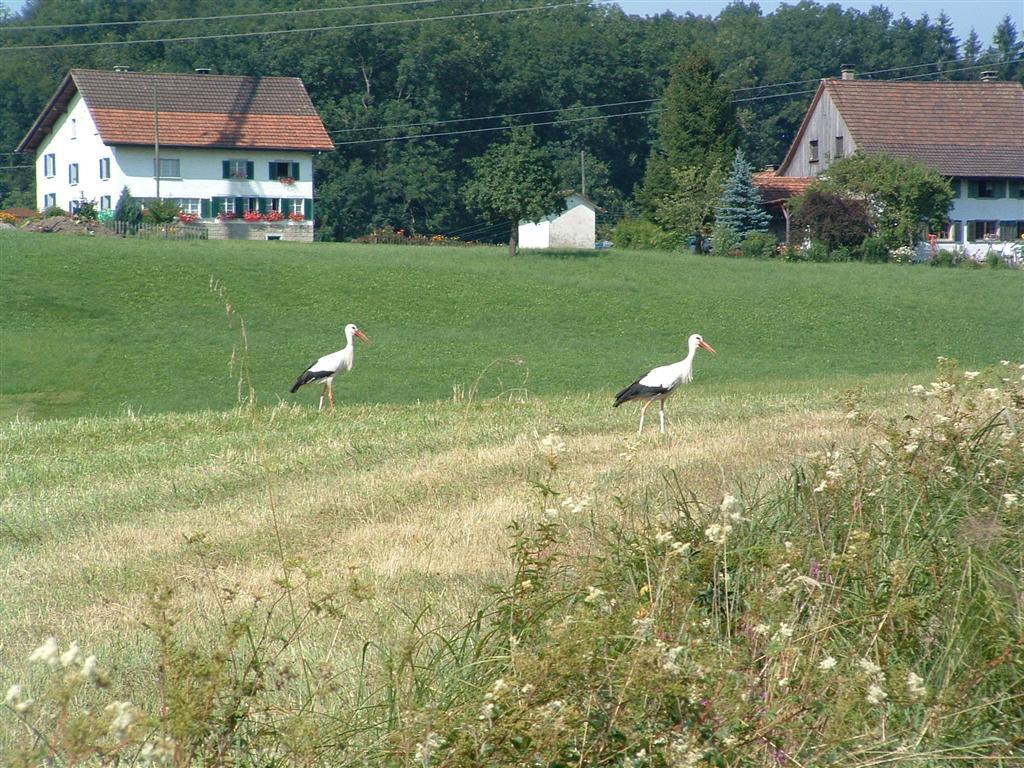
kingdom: Animalia
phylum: Chordata
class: Aves
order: Ciconiiformes
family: Ciconiidae
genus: Ciconia
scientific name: Ciconia ciconia
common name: White stork
